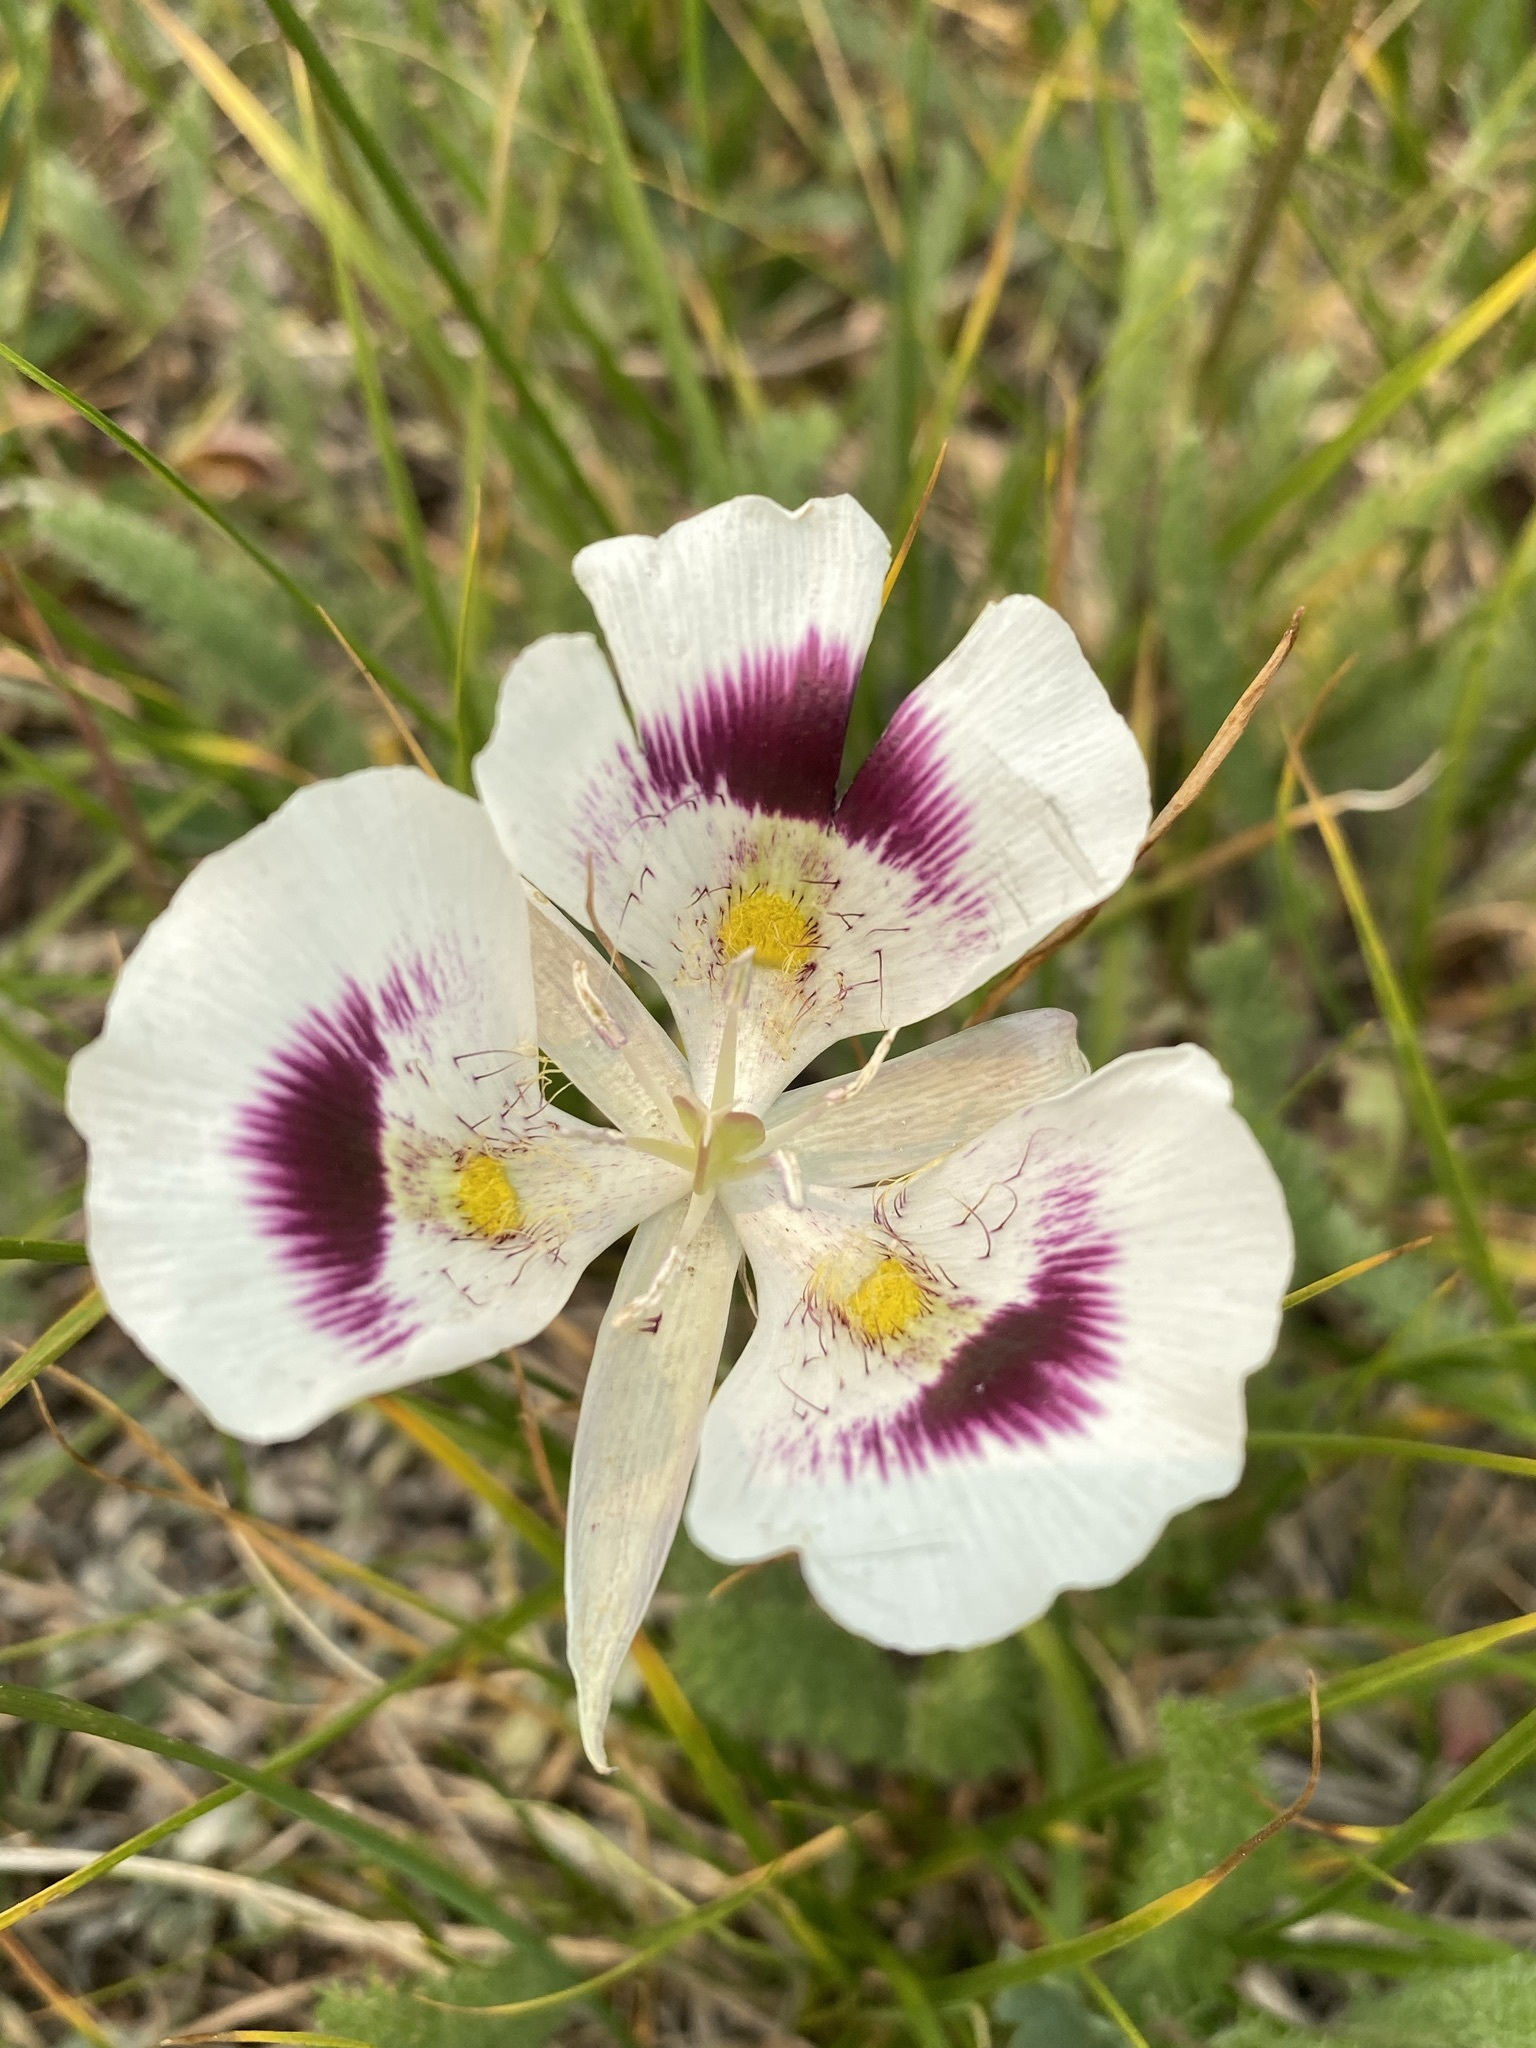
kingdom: Plantae
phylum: Tracheophyta
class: Liliopsida
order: Liliales
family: Liliaceae
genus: Calochortus
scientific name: Calochortus eurycarpus
